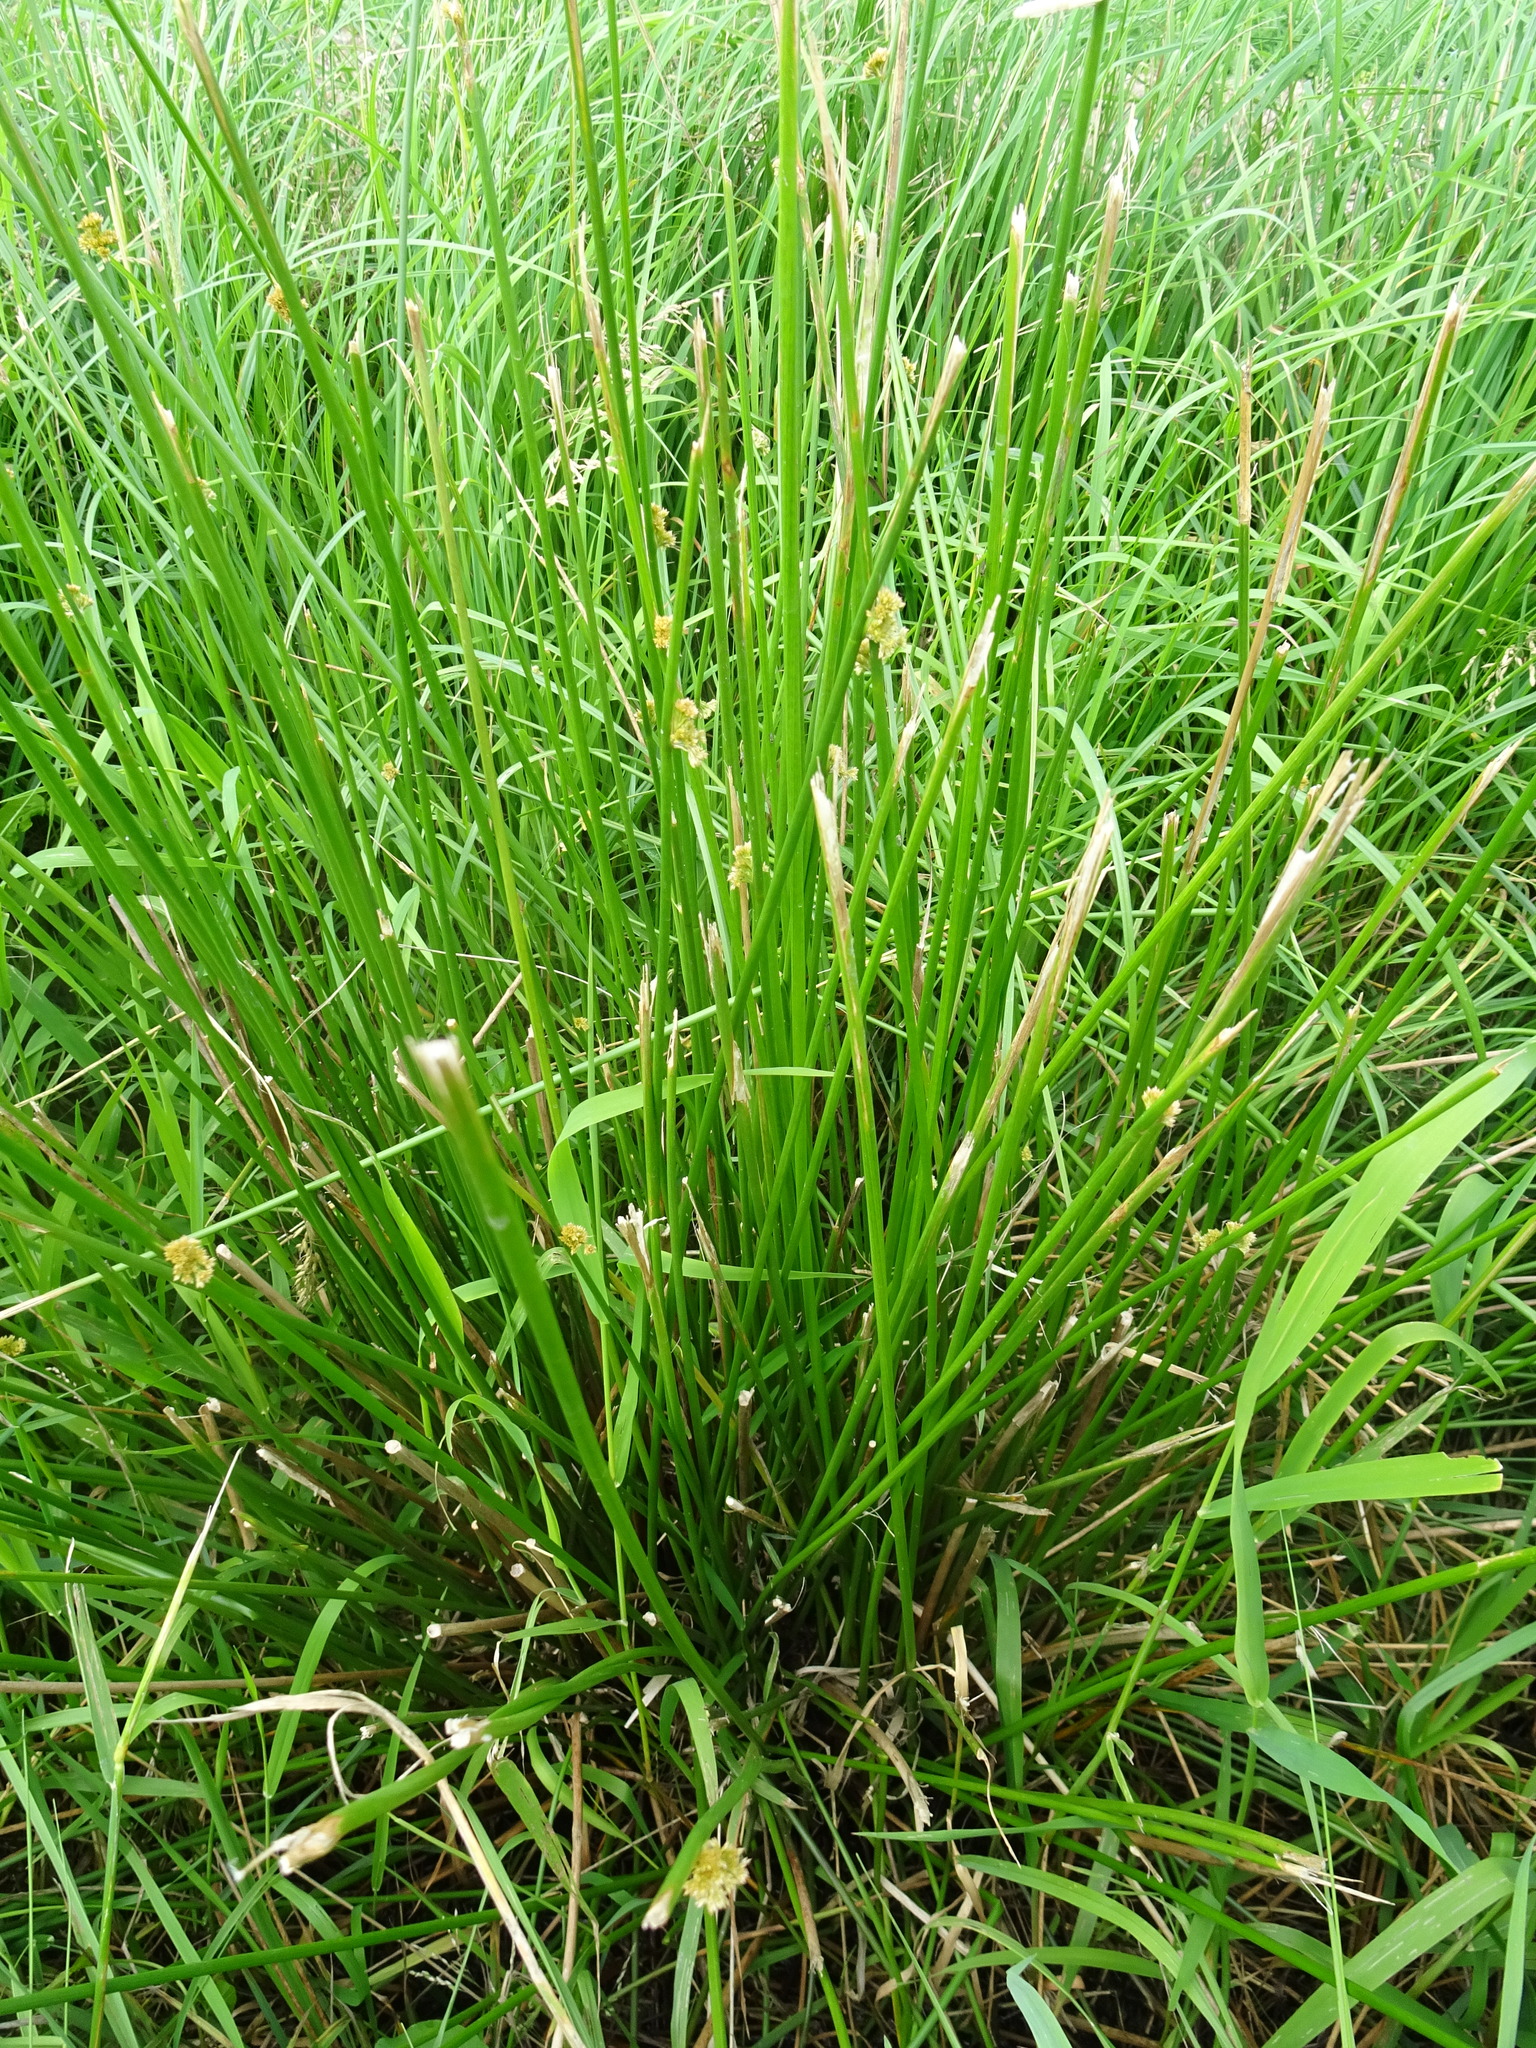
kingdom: Plantae
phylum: Tracheophyta
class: Liliopsida
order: Poales
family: Juncaceae
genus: Juncus
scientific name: Juncus effusus
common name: Soft rush
